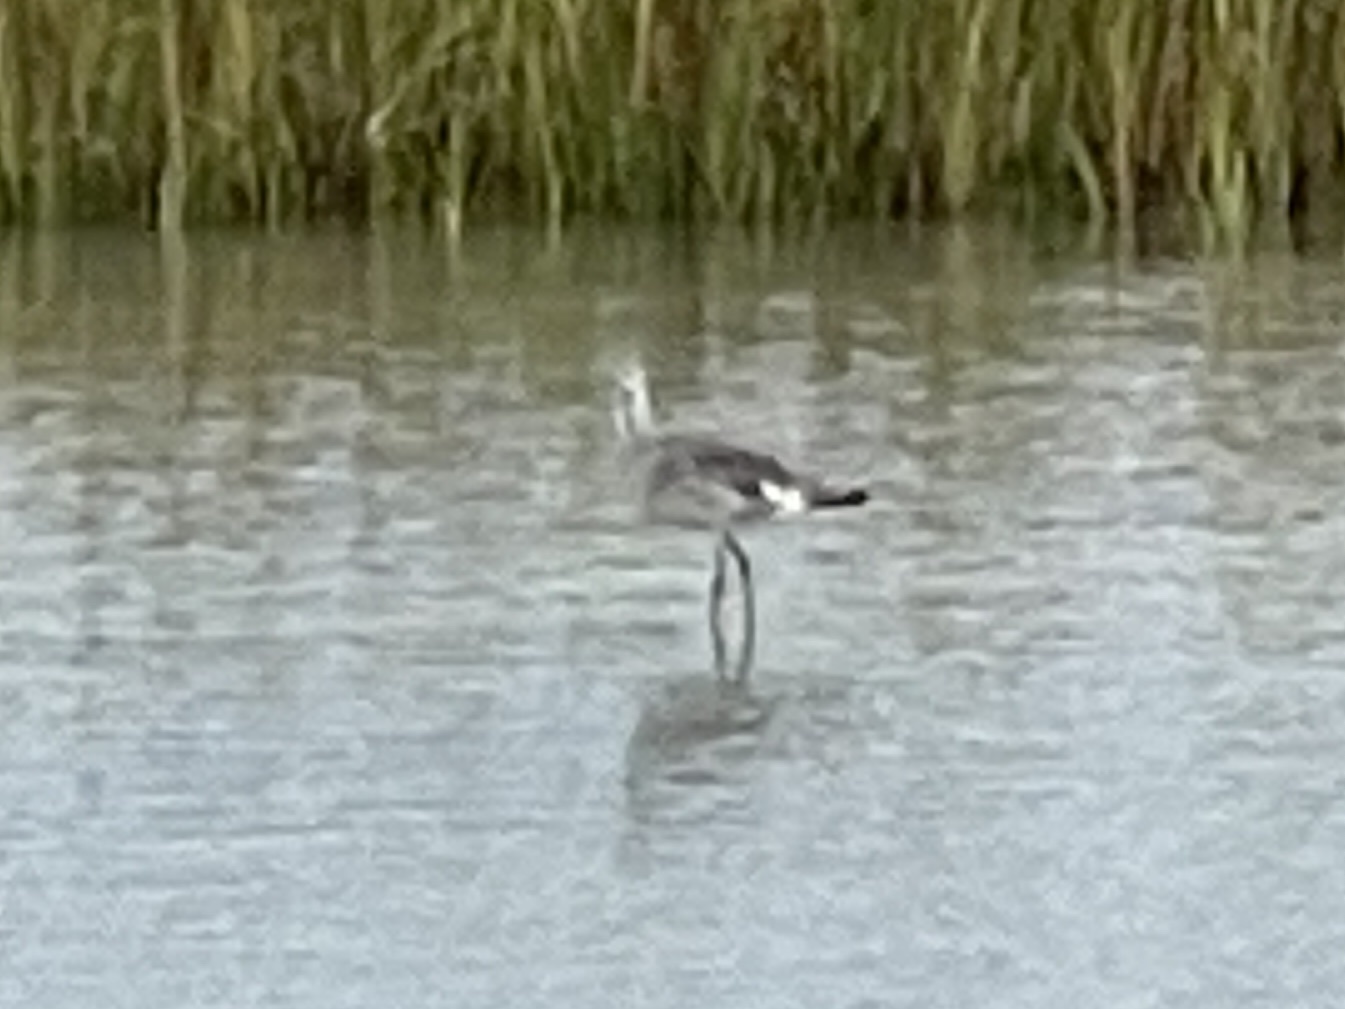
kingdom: Animalia
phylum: Chordata
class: Aves
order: Charadriiformes
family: Scolopacidae
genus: Tringa
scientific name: Tringa semipalmata
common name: Willet
